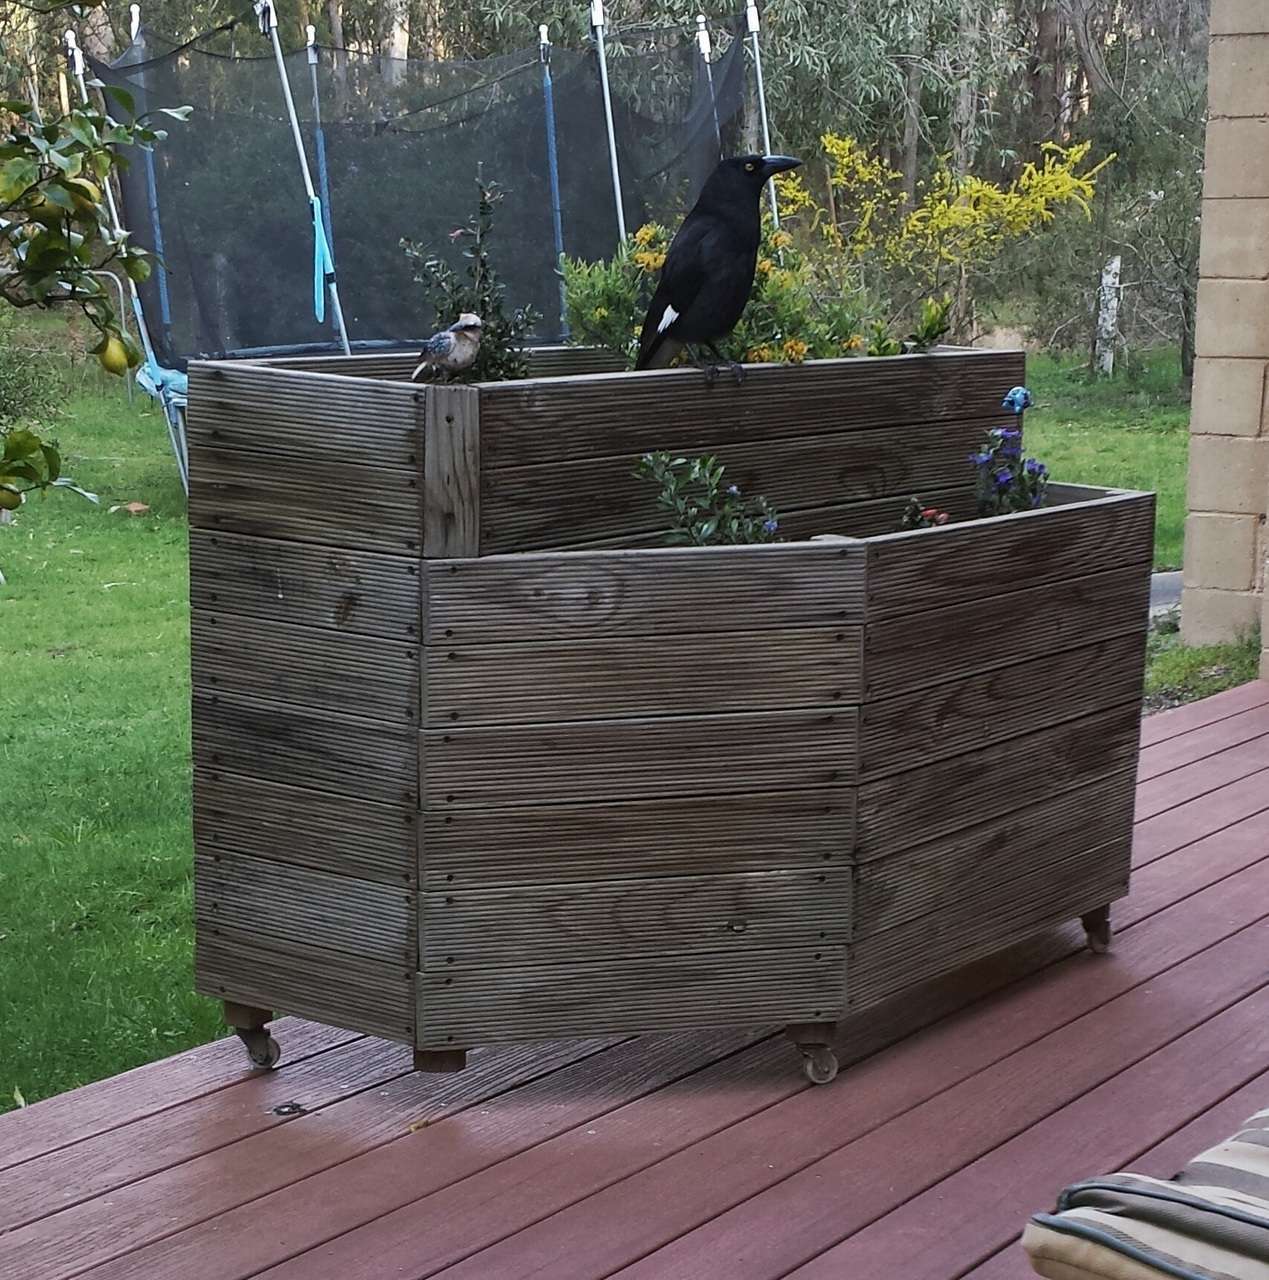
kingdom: Animalia
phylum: Chordata
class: Aves
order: Passeriformes
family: Cracticidae
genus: Strepera
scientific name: Strepera graculina
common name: Pied currawong
